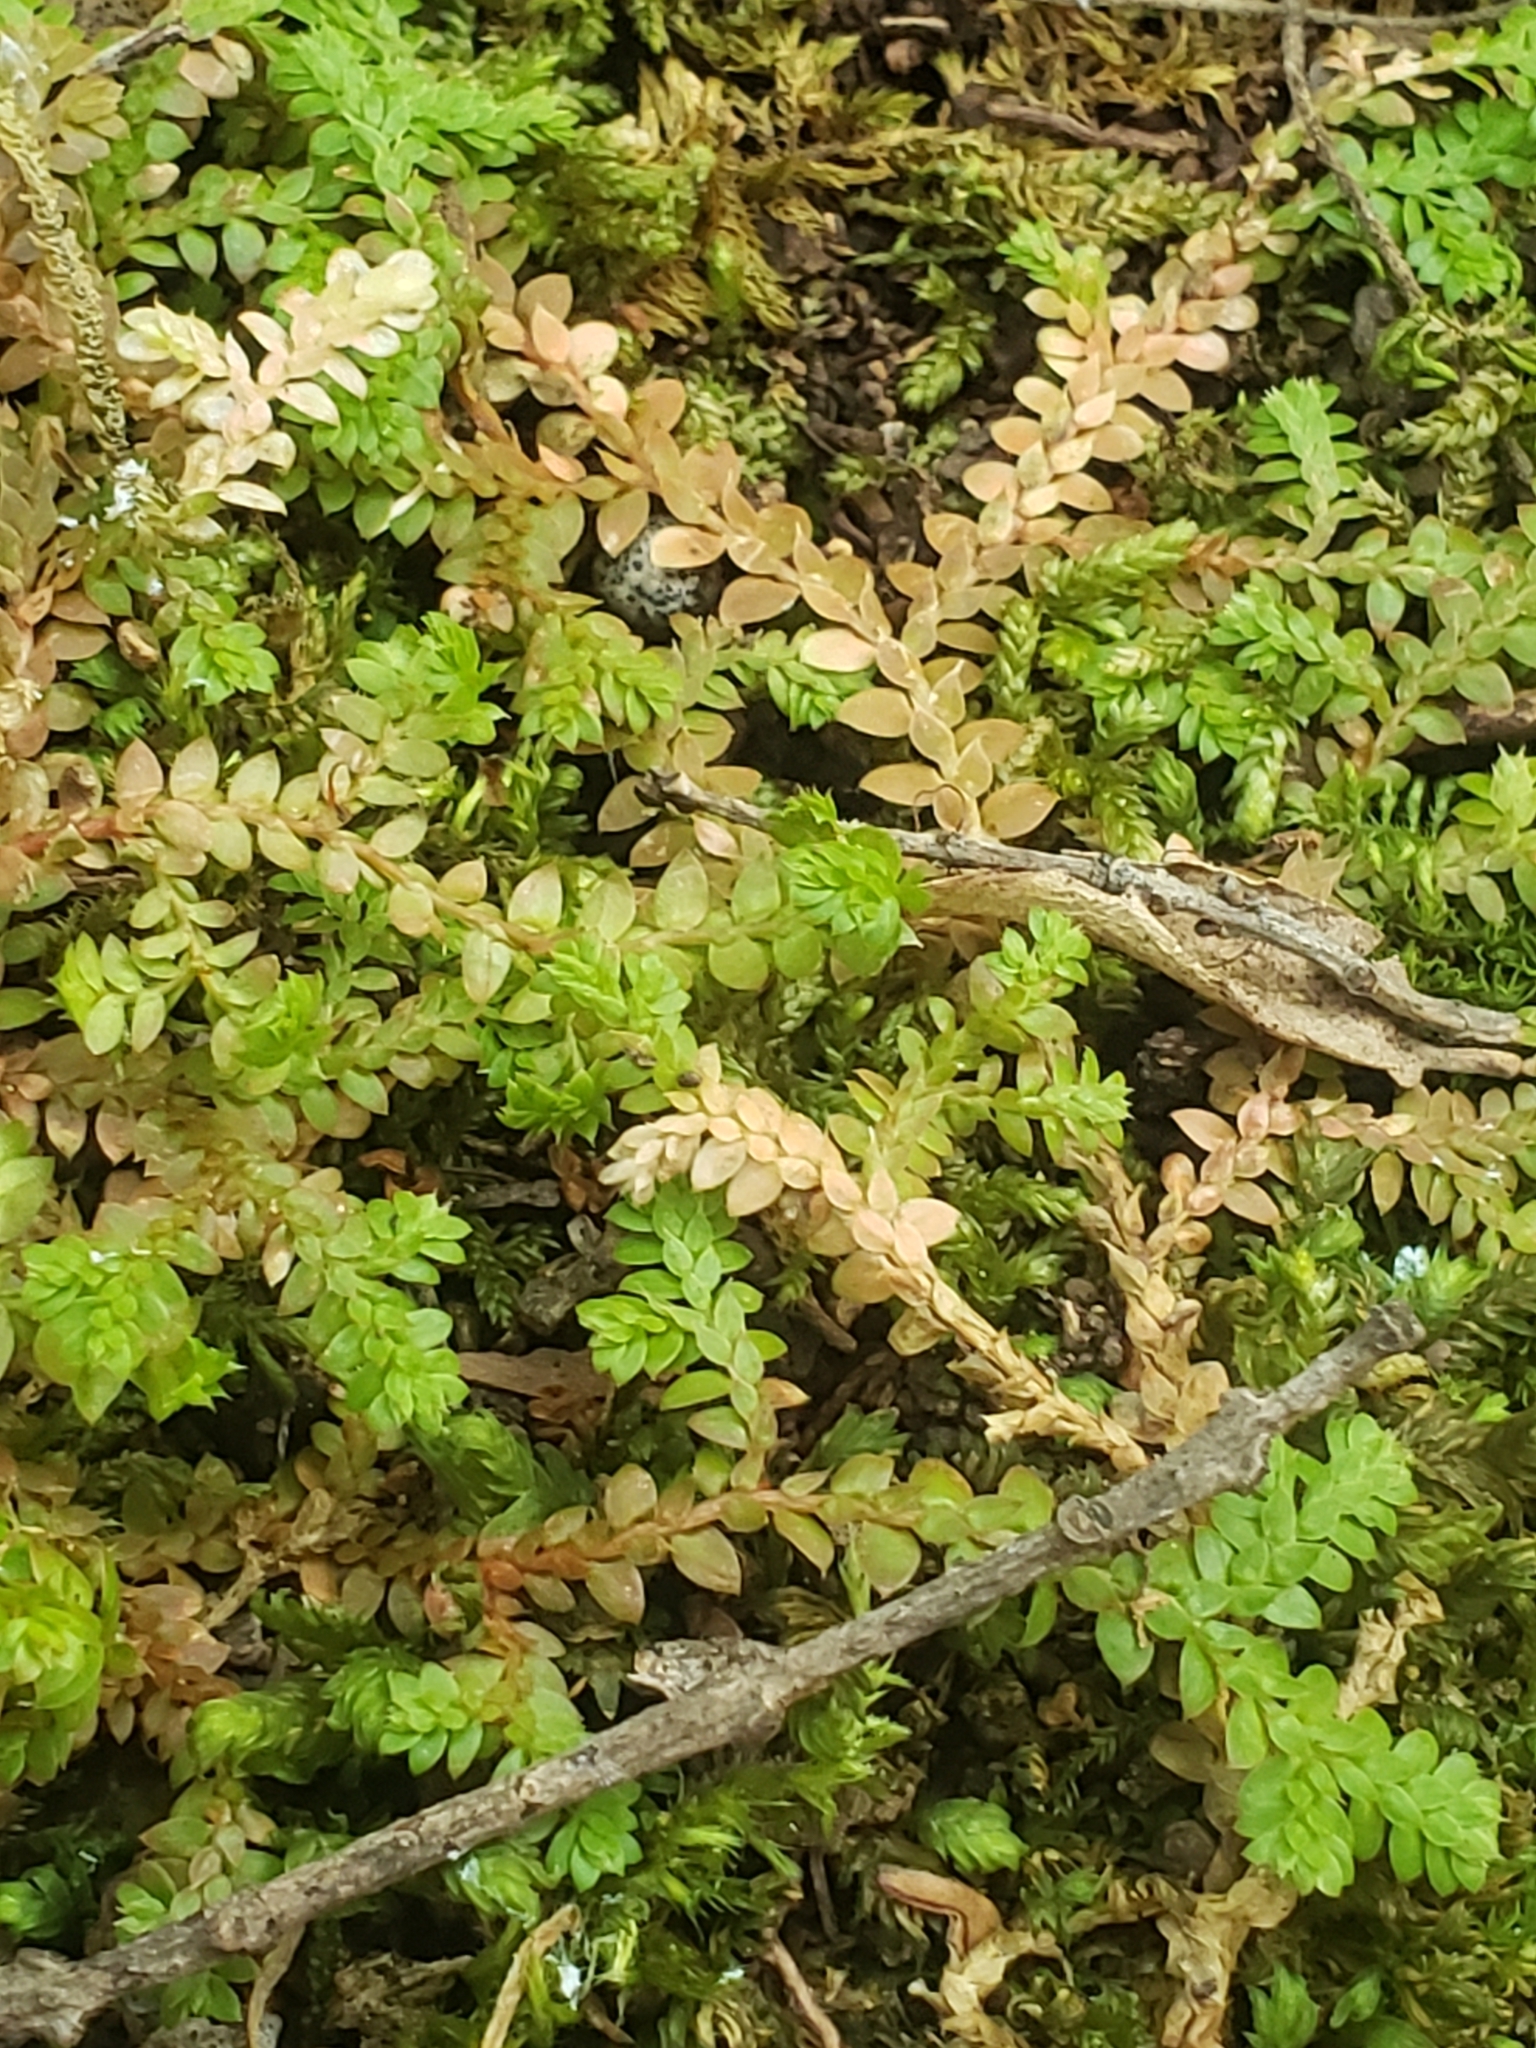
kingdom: Plantae
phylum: Tracheophyta
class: Lycopodiopsida
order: Selaginellales
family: Selaginellaceae
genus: Selaginella
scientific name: Selaginella denticulata
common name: Toothed-leaved clubmoss
